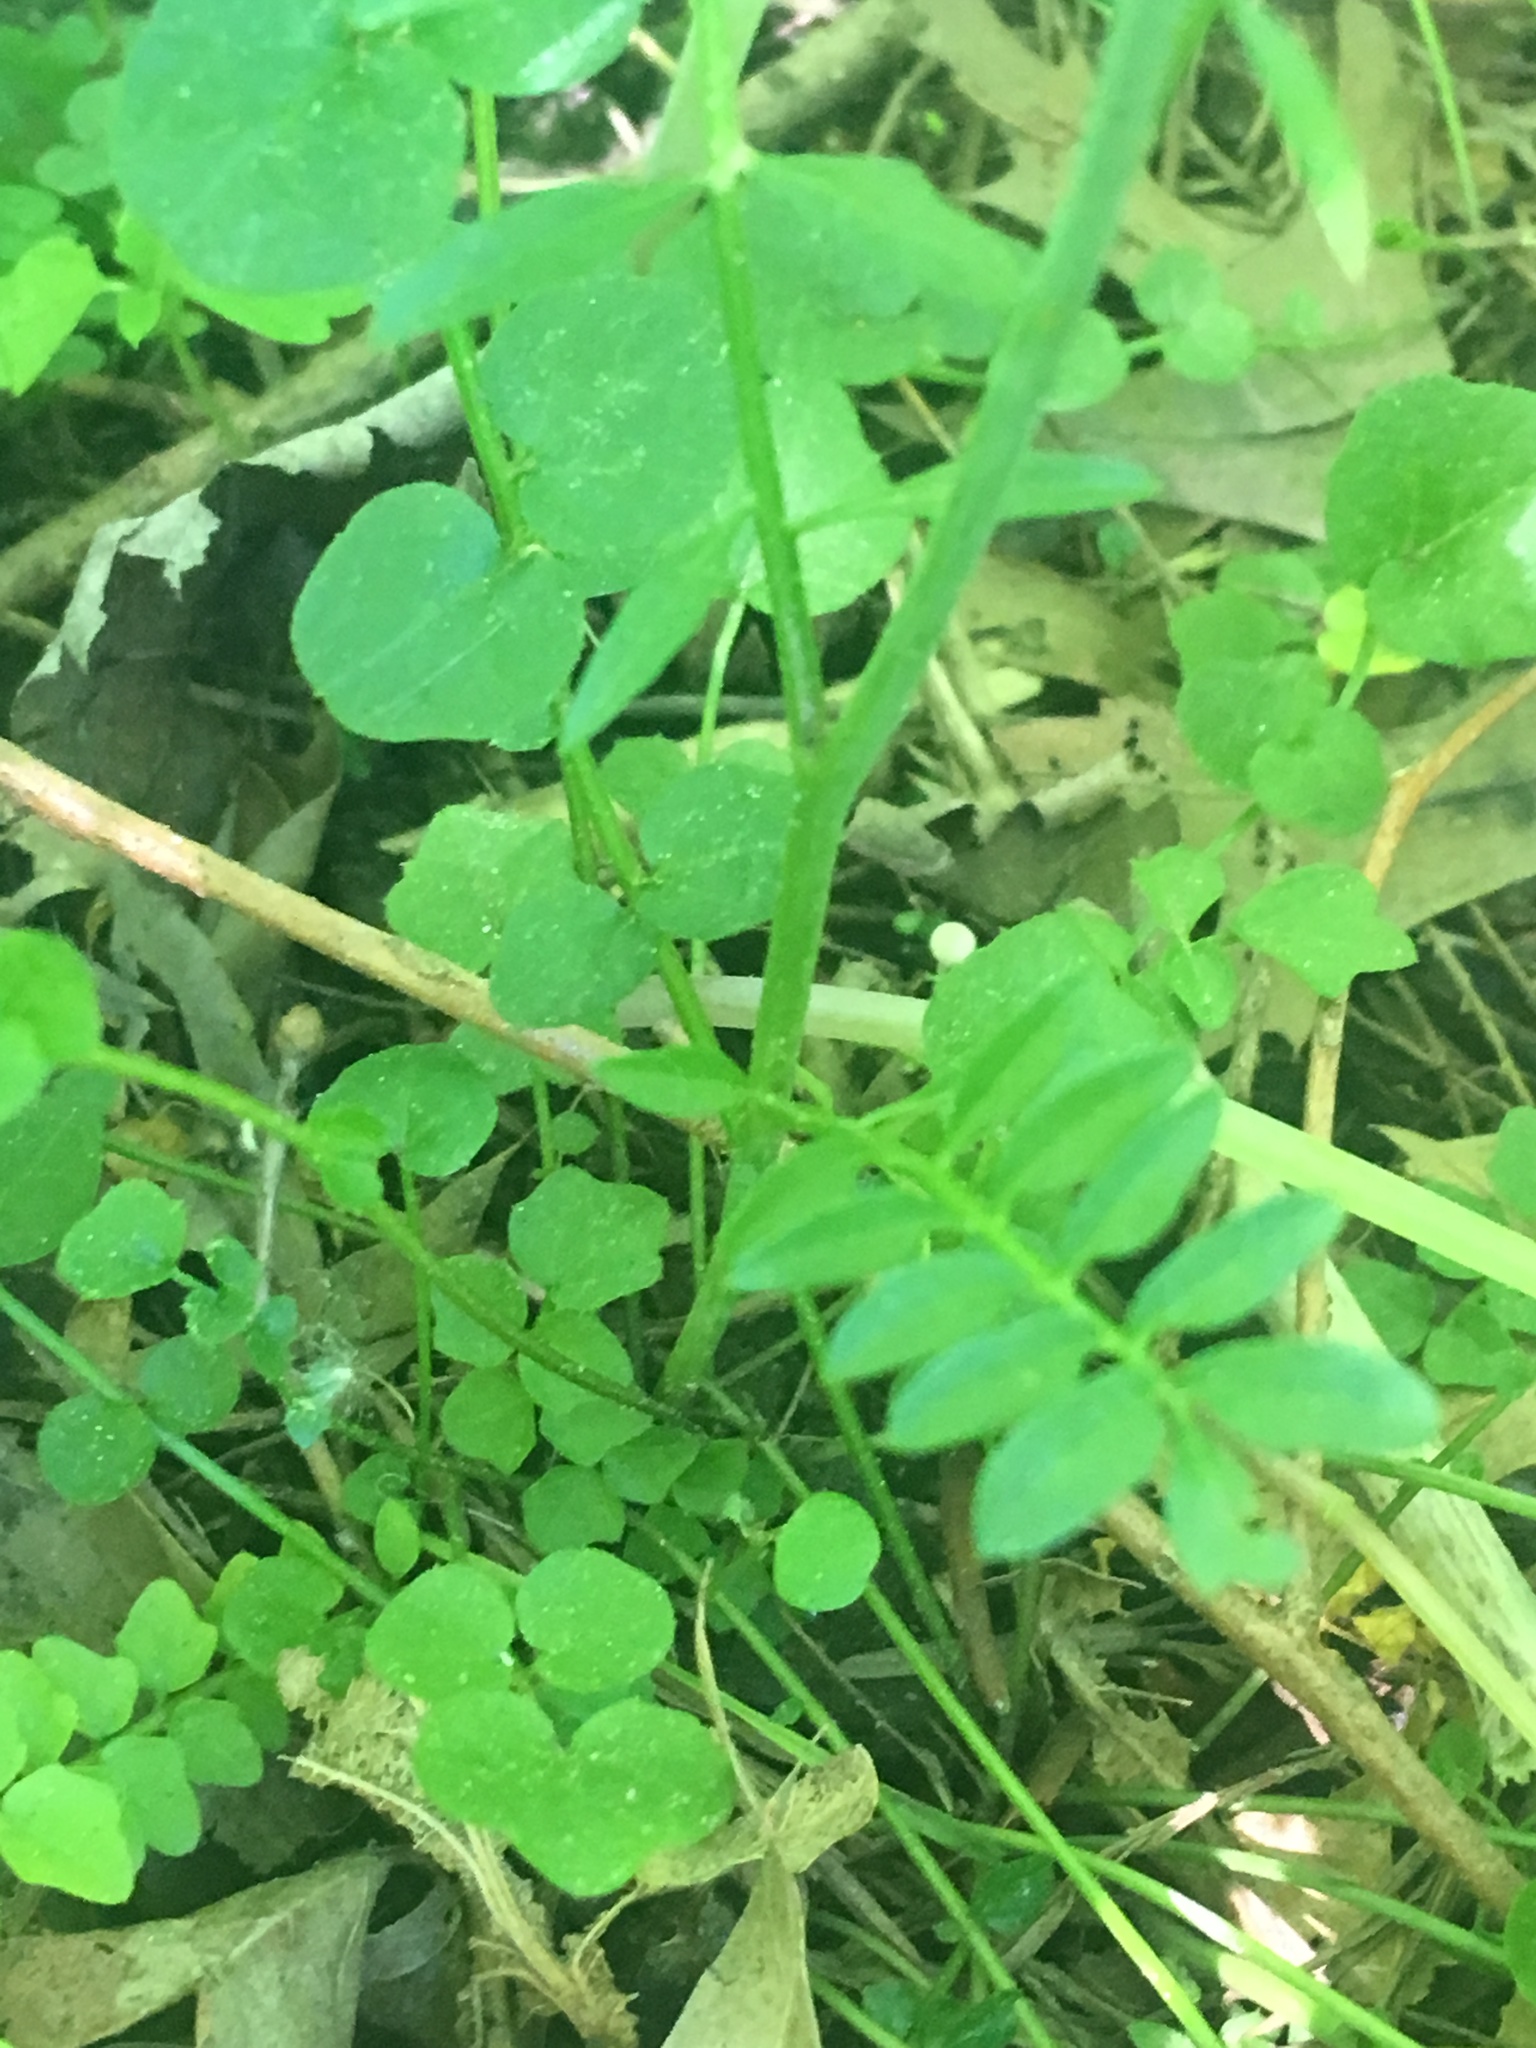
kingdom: Plantae
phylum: Tracheophyta
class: Magnoliopsida
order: Brassicales
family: Brassicaceae
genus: Cardamine
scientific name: Cardamine pratensis
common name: Cuckoo flower
